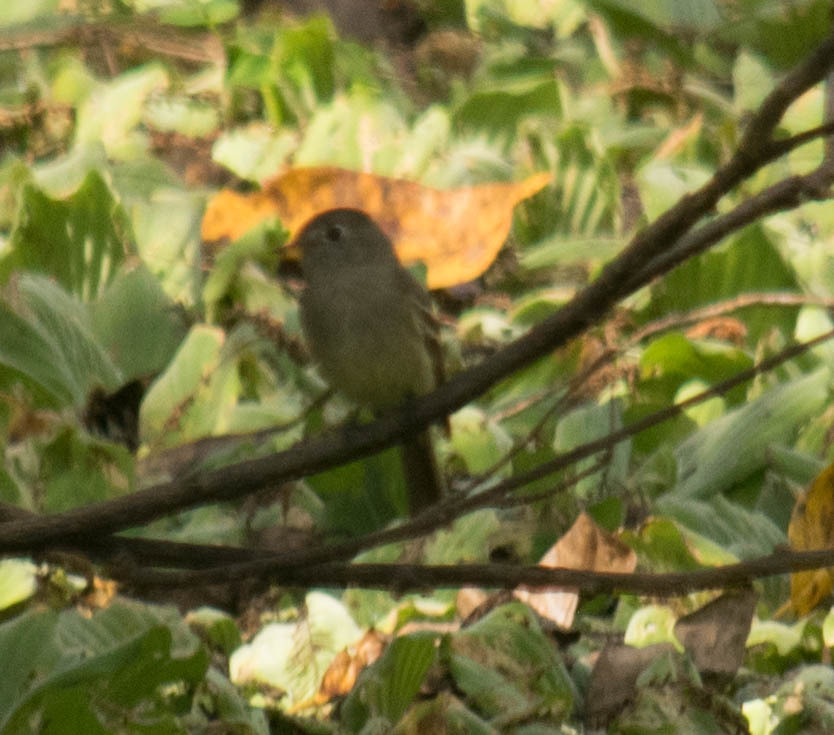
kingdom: Animalia
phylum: Chordata
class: Aves
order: Passeriformes
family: Tyrannidae
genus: Empidonax
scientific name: Empidonax hammondii
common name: Hammond's flycatcher
